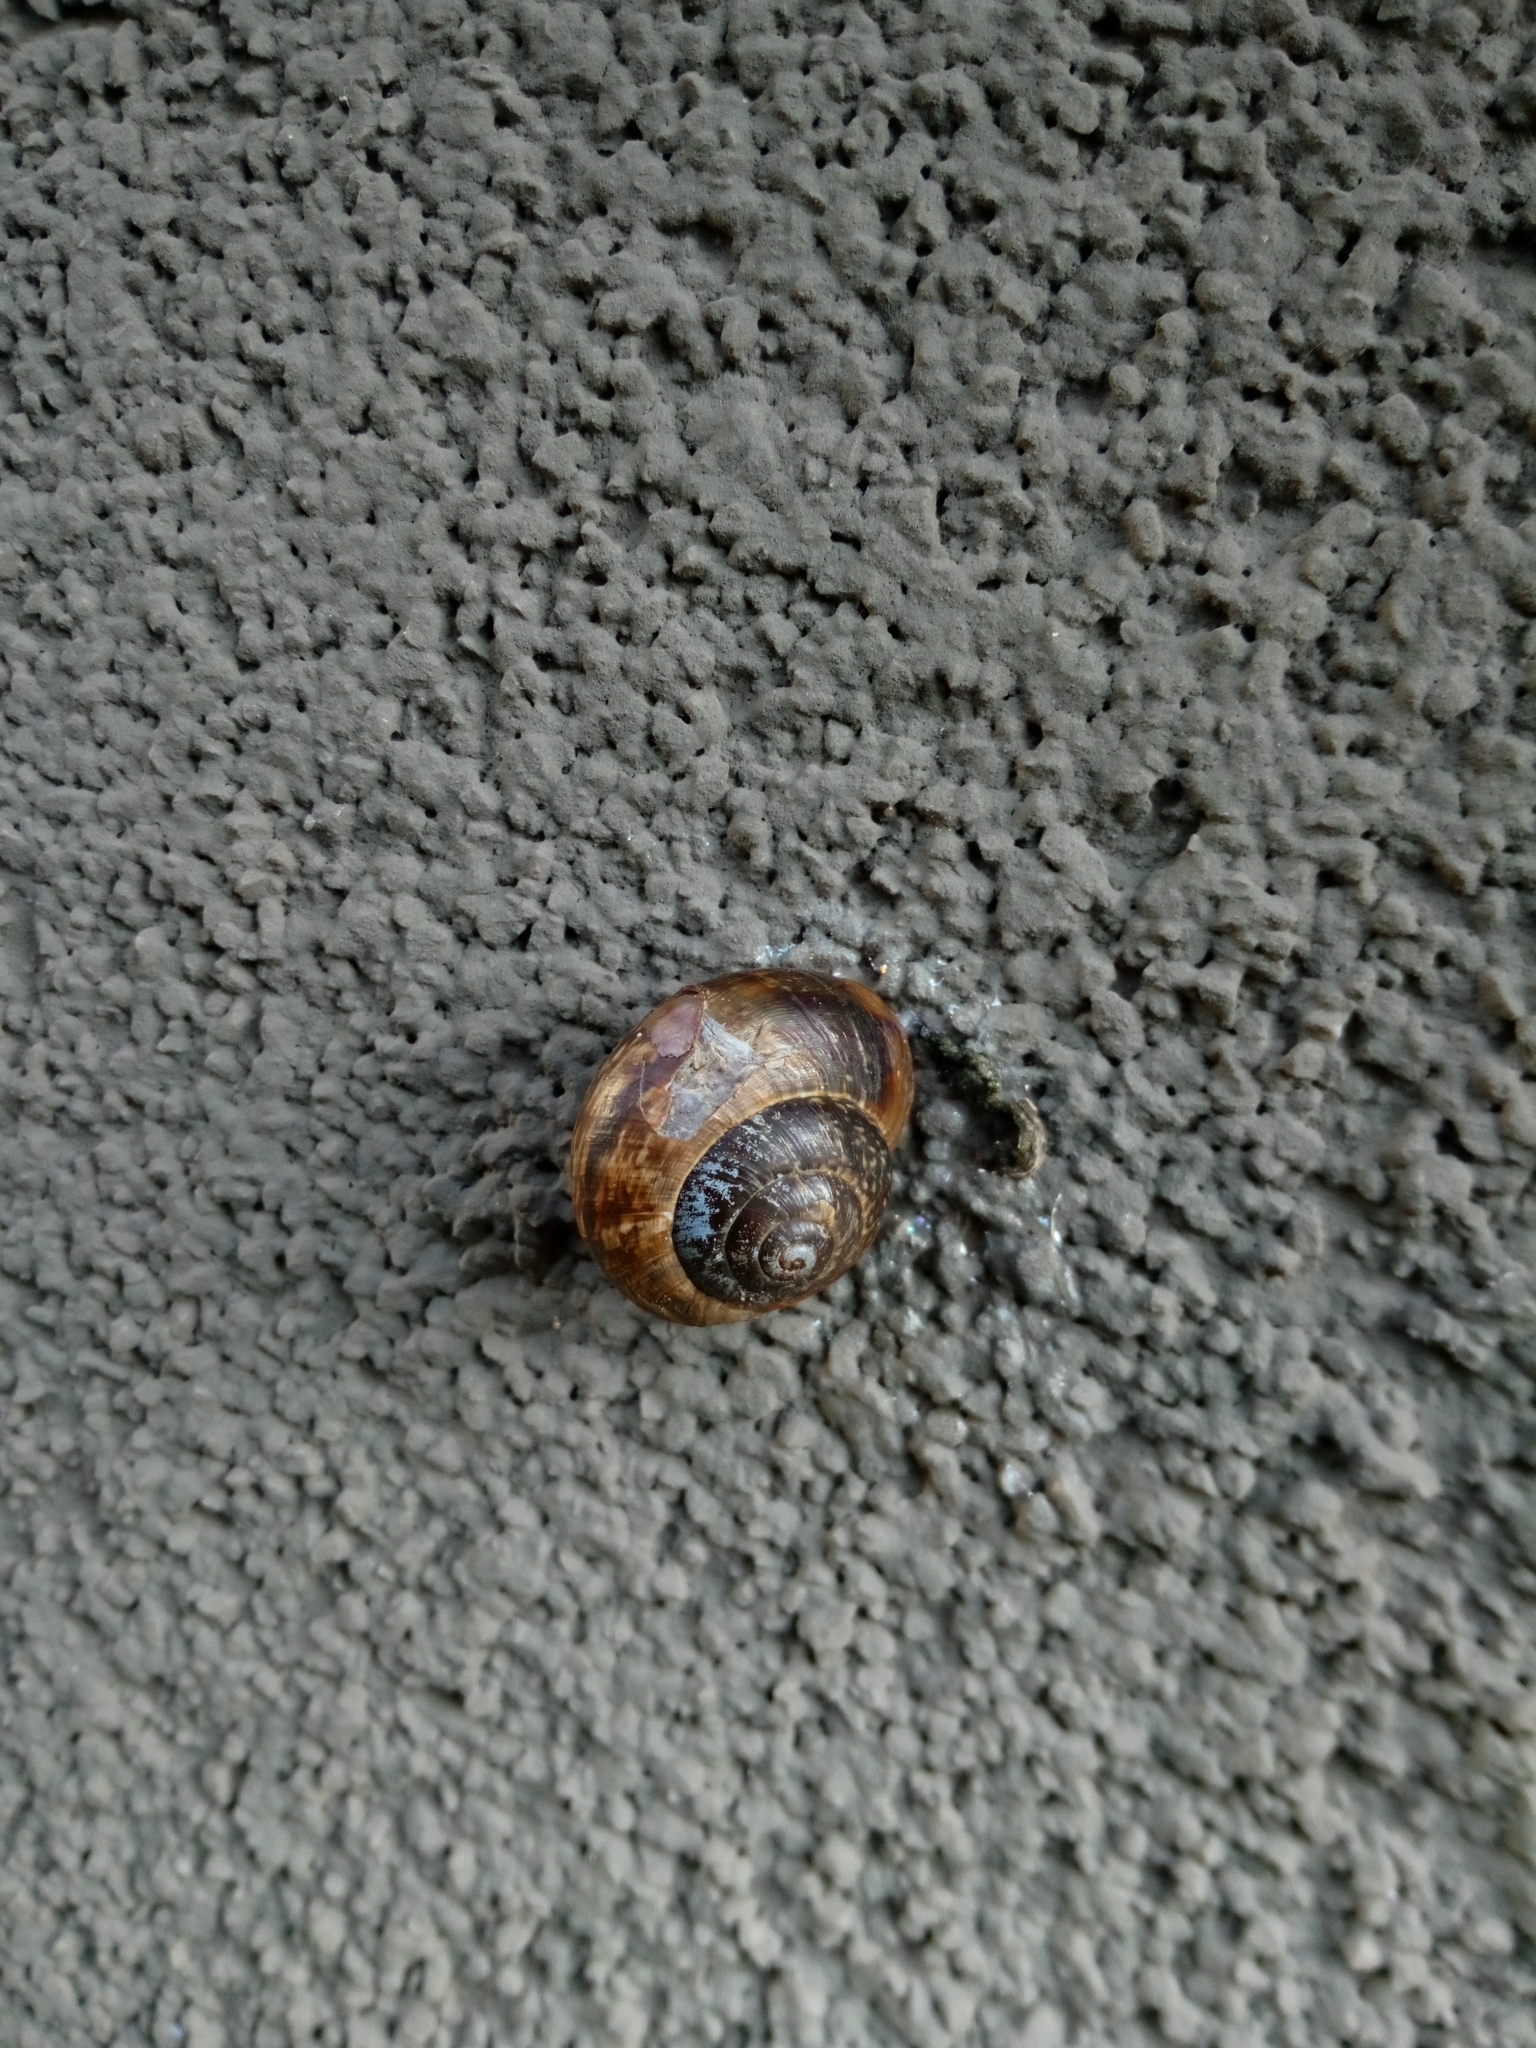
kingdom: Animalia
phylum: Mollusca
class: Gastropoda
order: Stylommatophora
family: Helicidae
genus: Arianta
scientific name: Arianta arbustorum
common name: Copse snail
